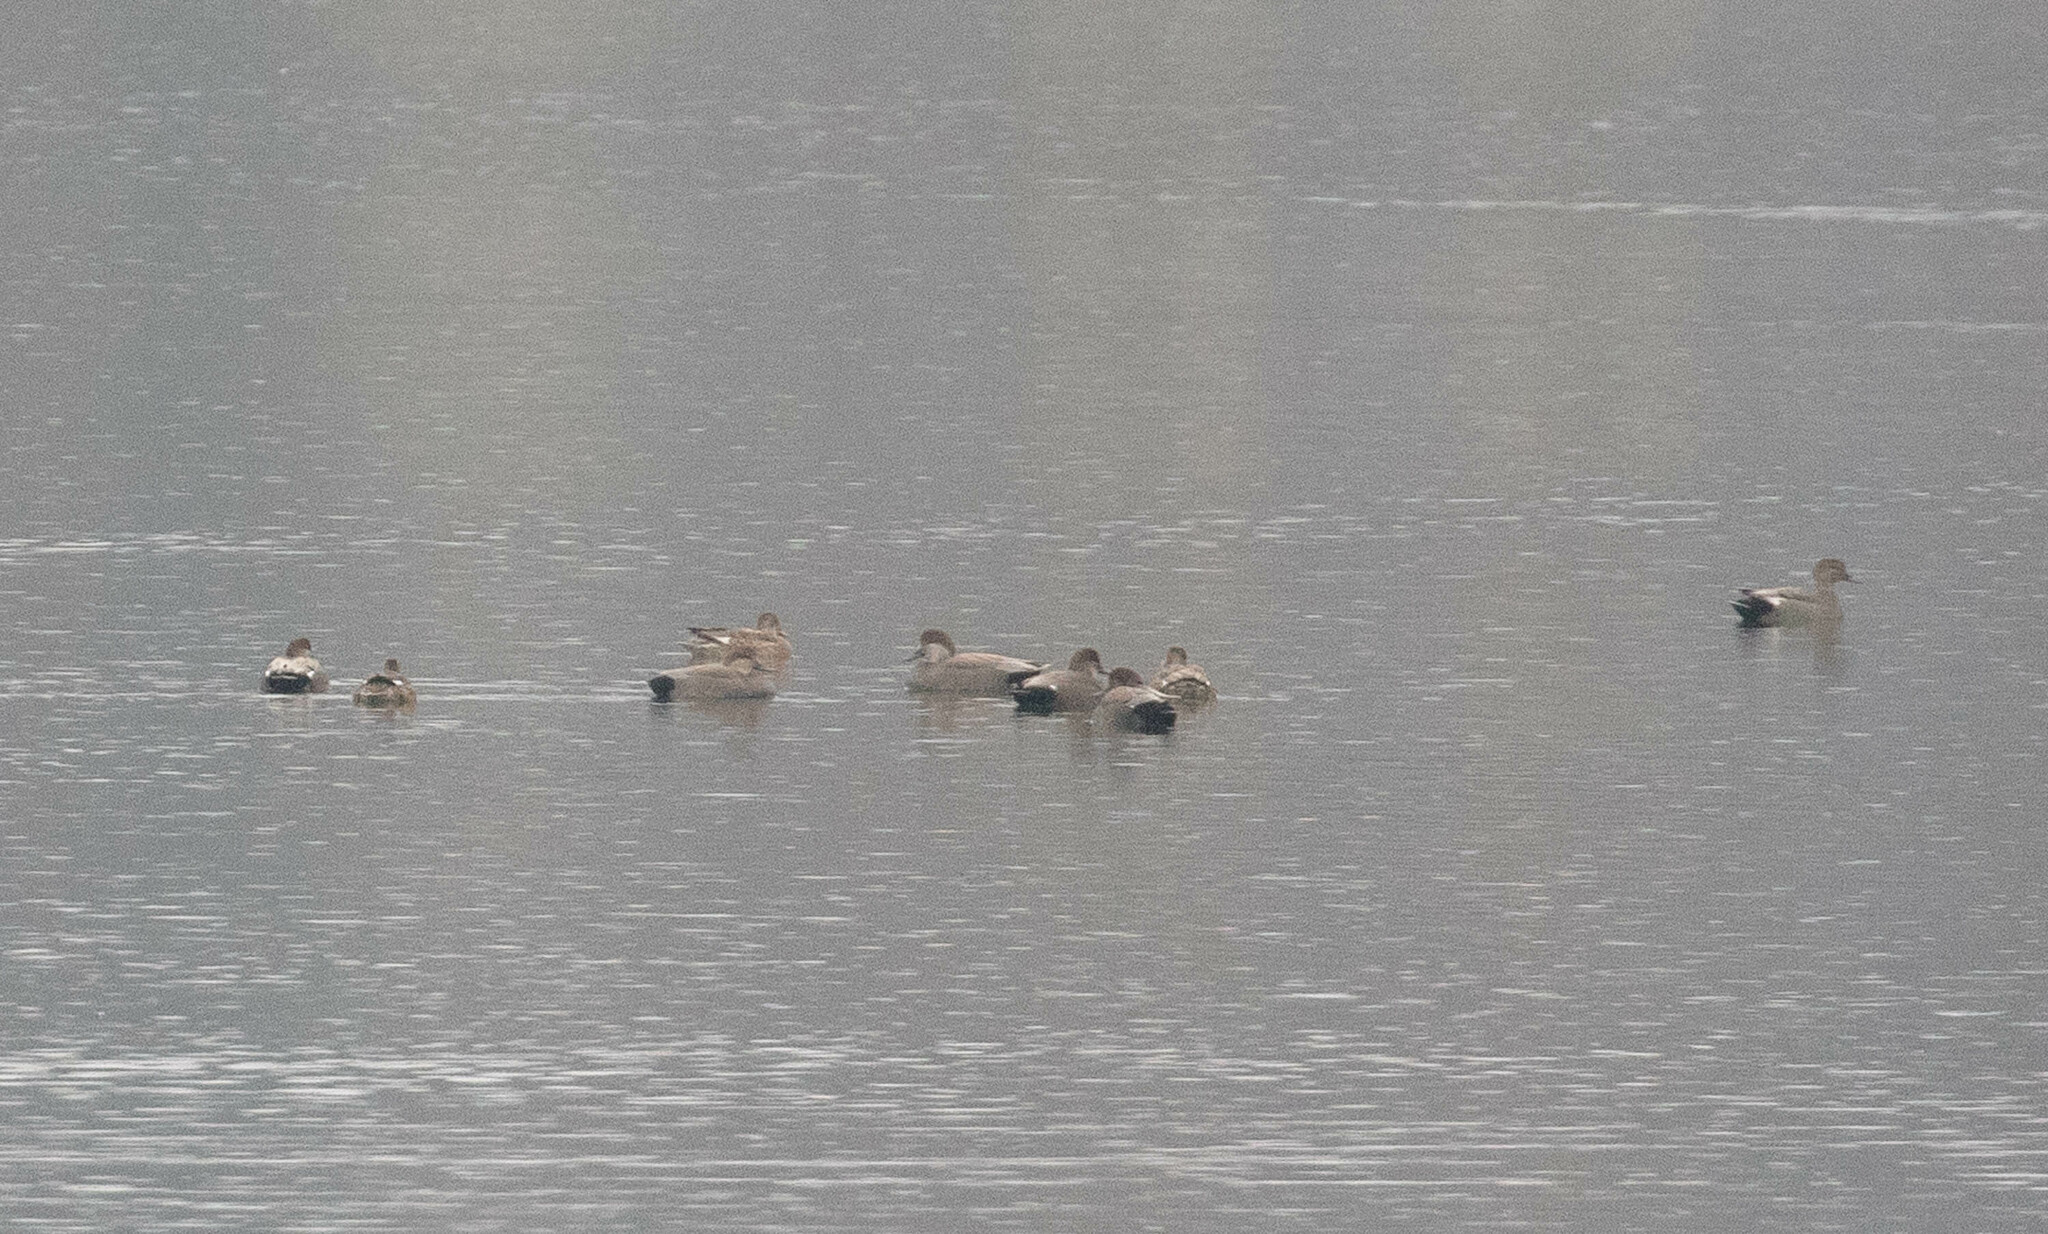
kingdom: Animalia
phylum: Chordata
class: Aves
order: Anseriformes
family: Anatidae
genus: Mareca
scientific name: Mareca strepera
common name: Gadwall
